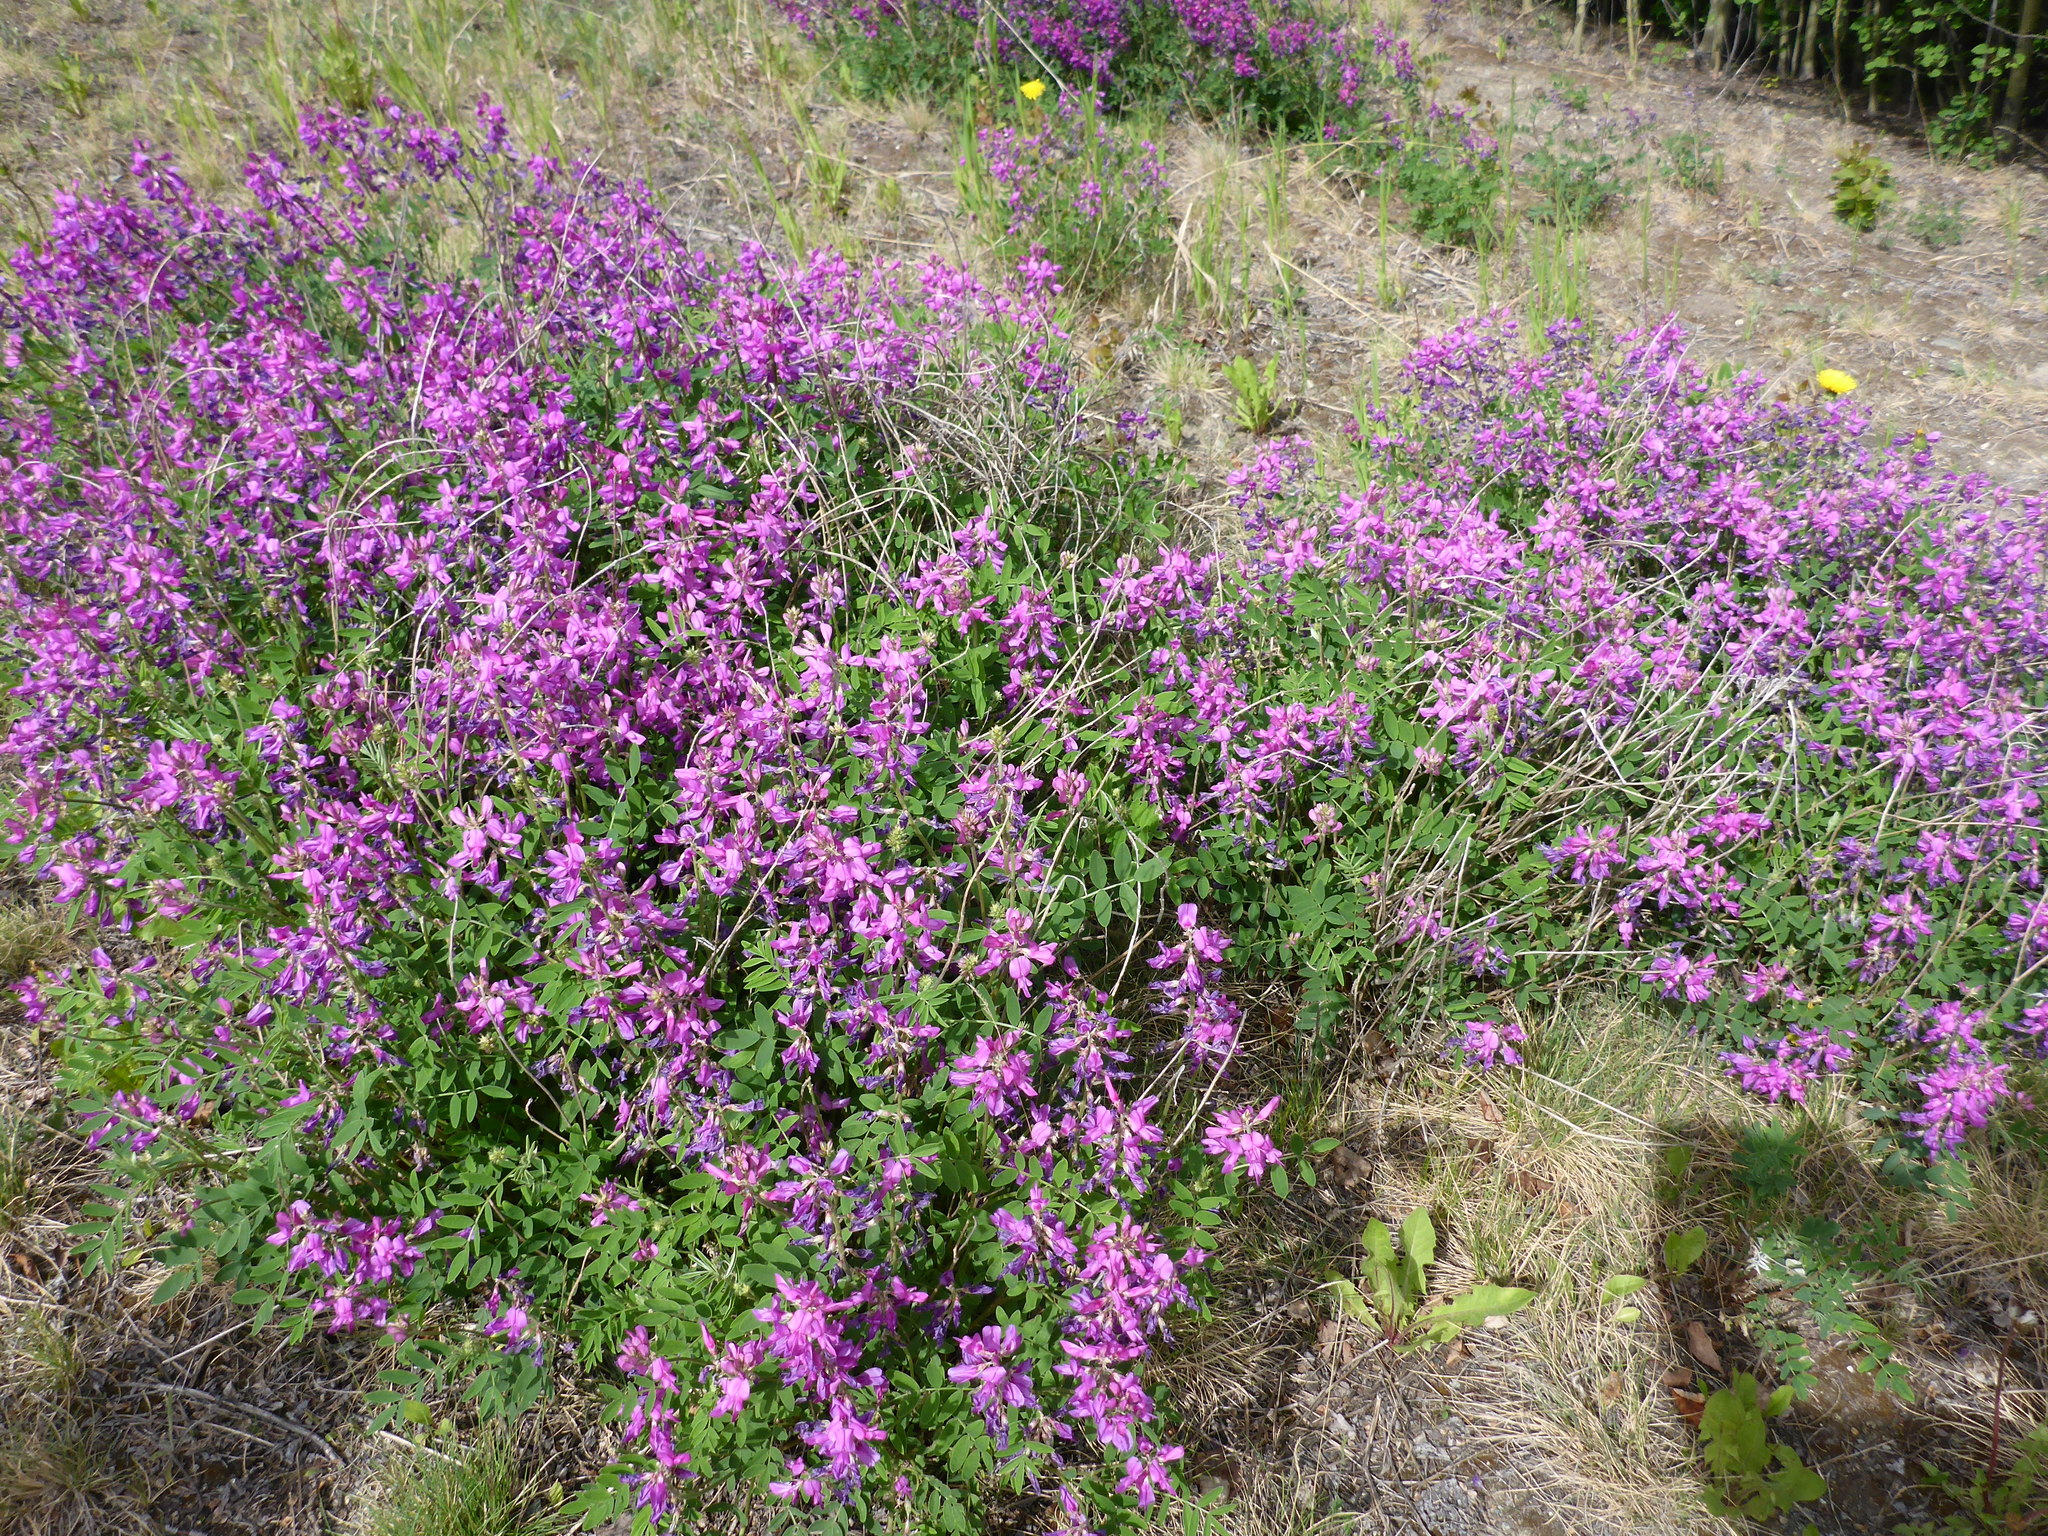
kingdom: Plantae
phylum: Tracheophyta
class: Magnoliopsida
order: Fabales
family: Fabaceae
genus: Hedysarum
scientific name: Hedysarum boreale
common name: Northern sweet-vetch
